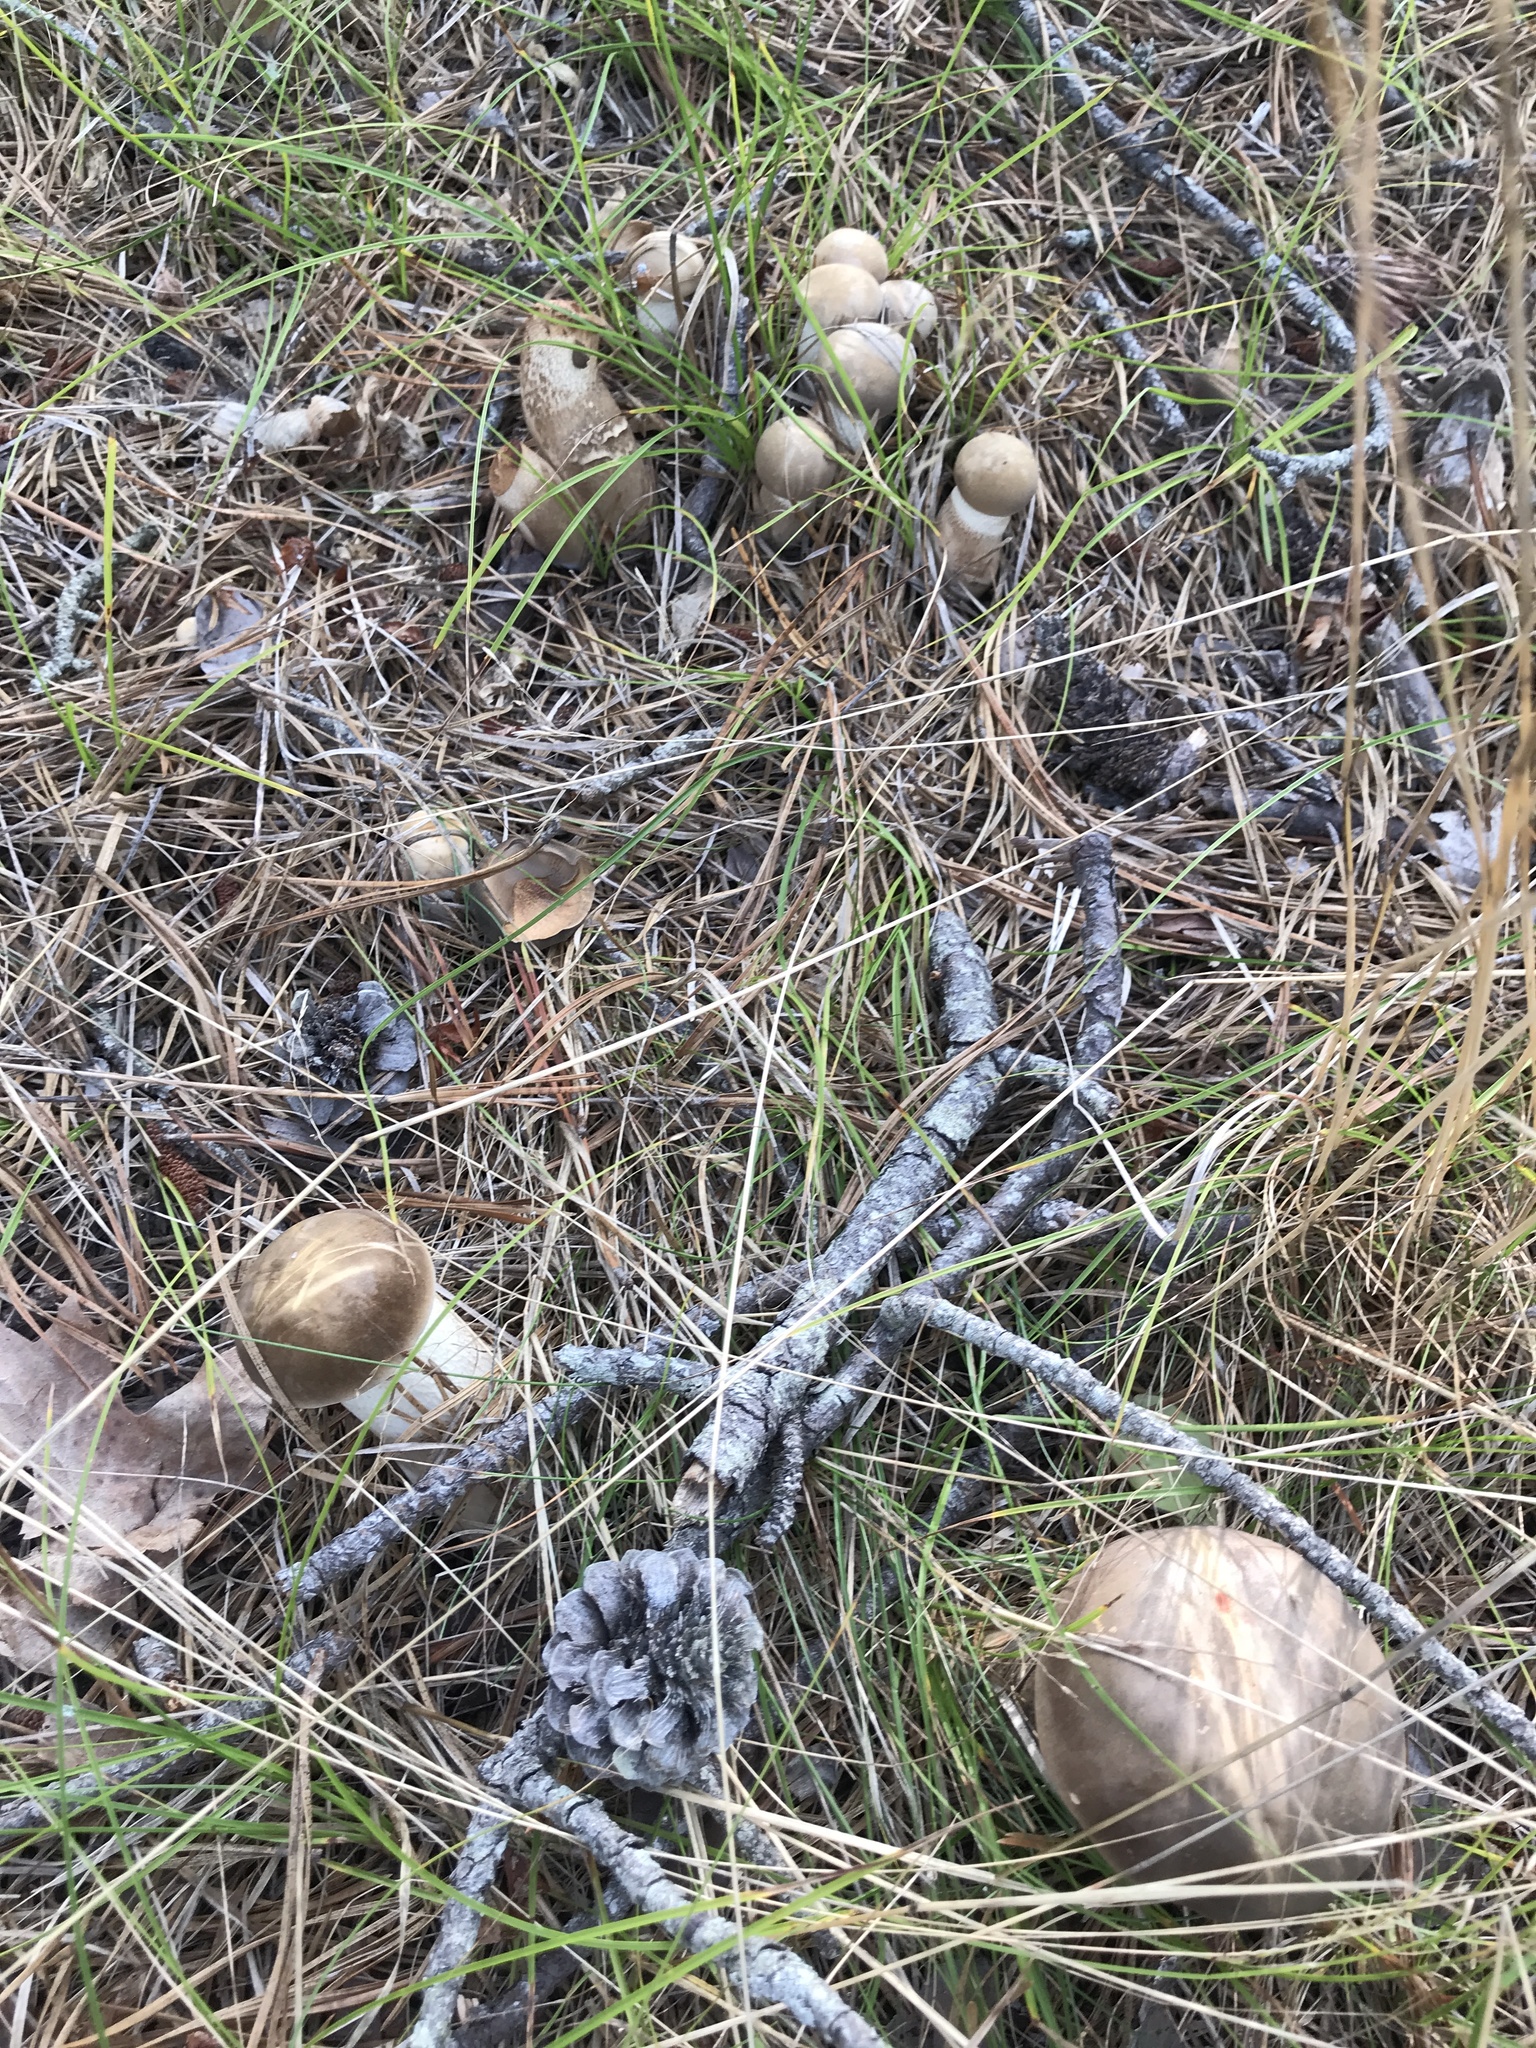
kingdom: Fungi
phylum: Basidiomycota
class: Agaricomycetes
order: Boletales
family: Boletaceae
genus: Retiboletus
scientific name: Retiboletus vinaceipes
